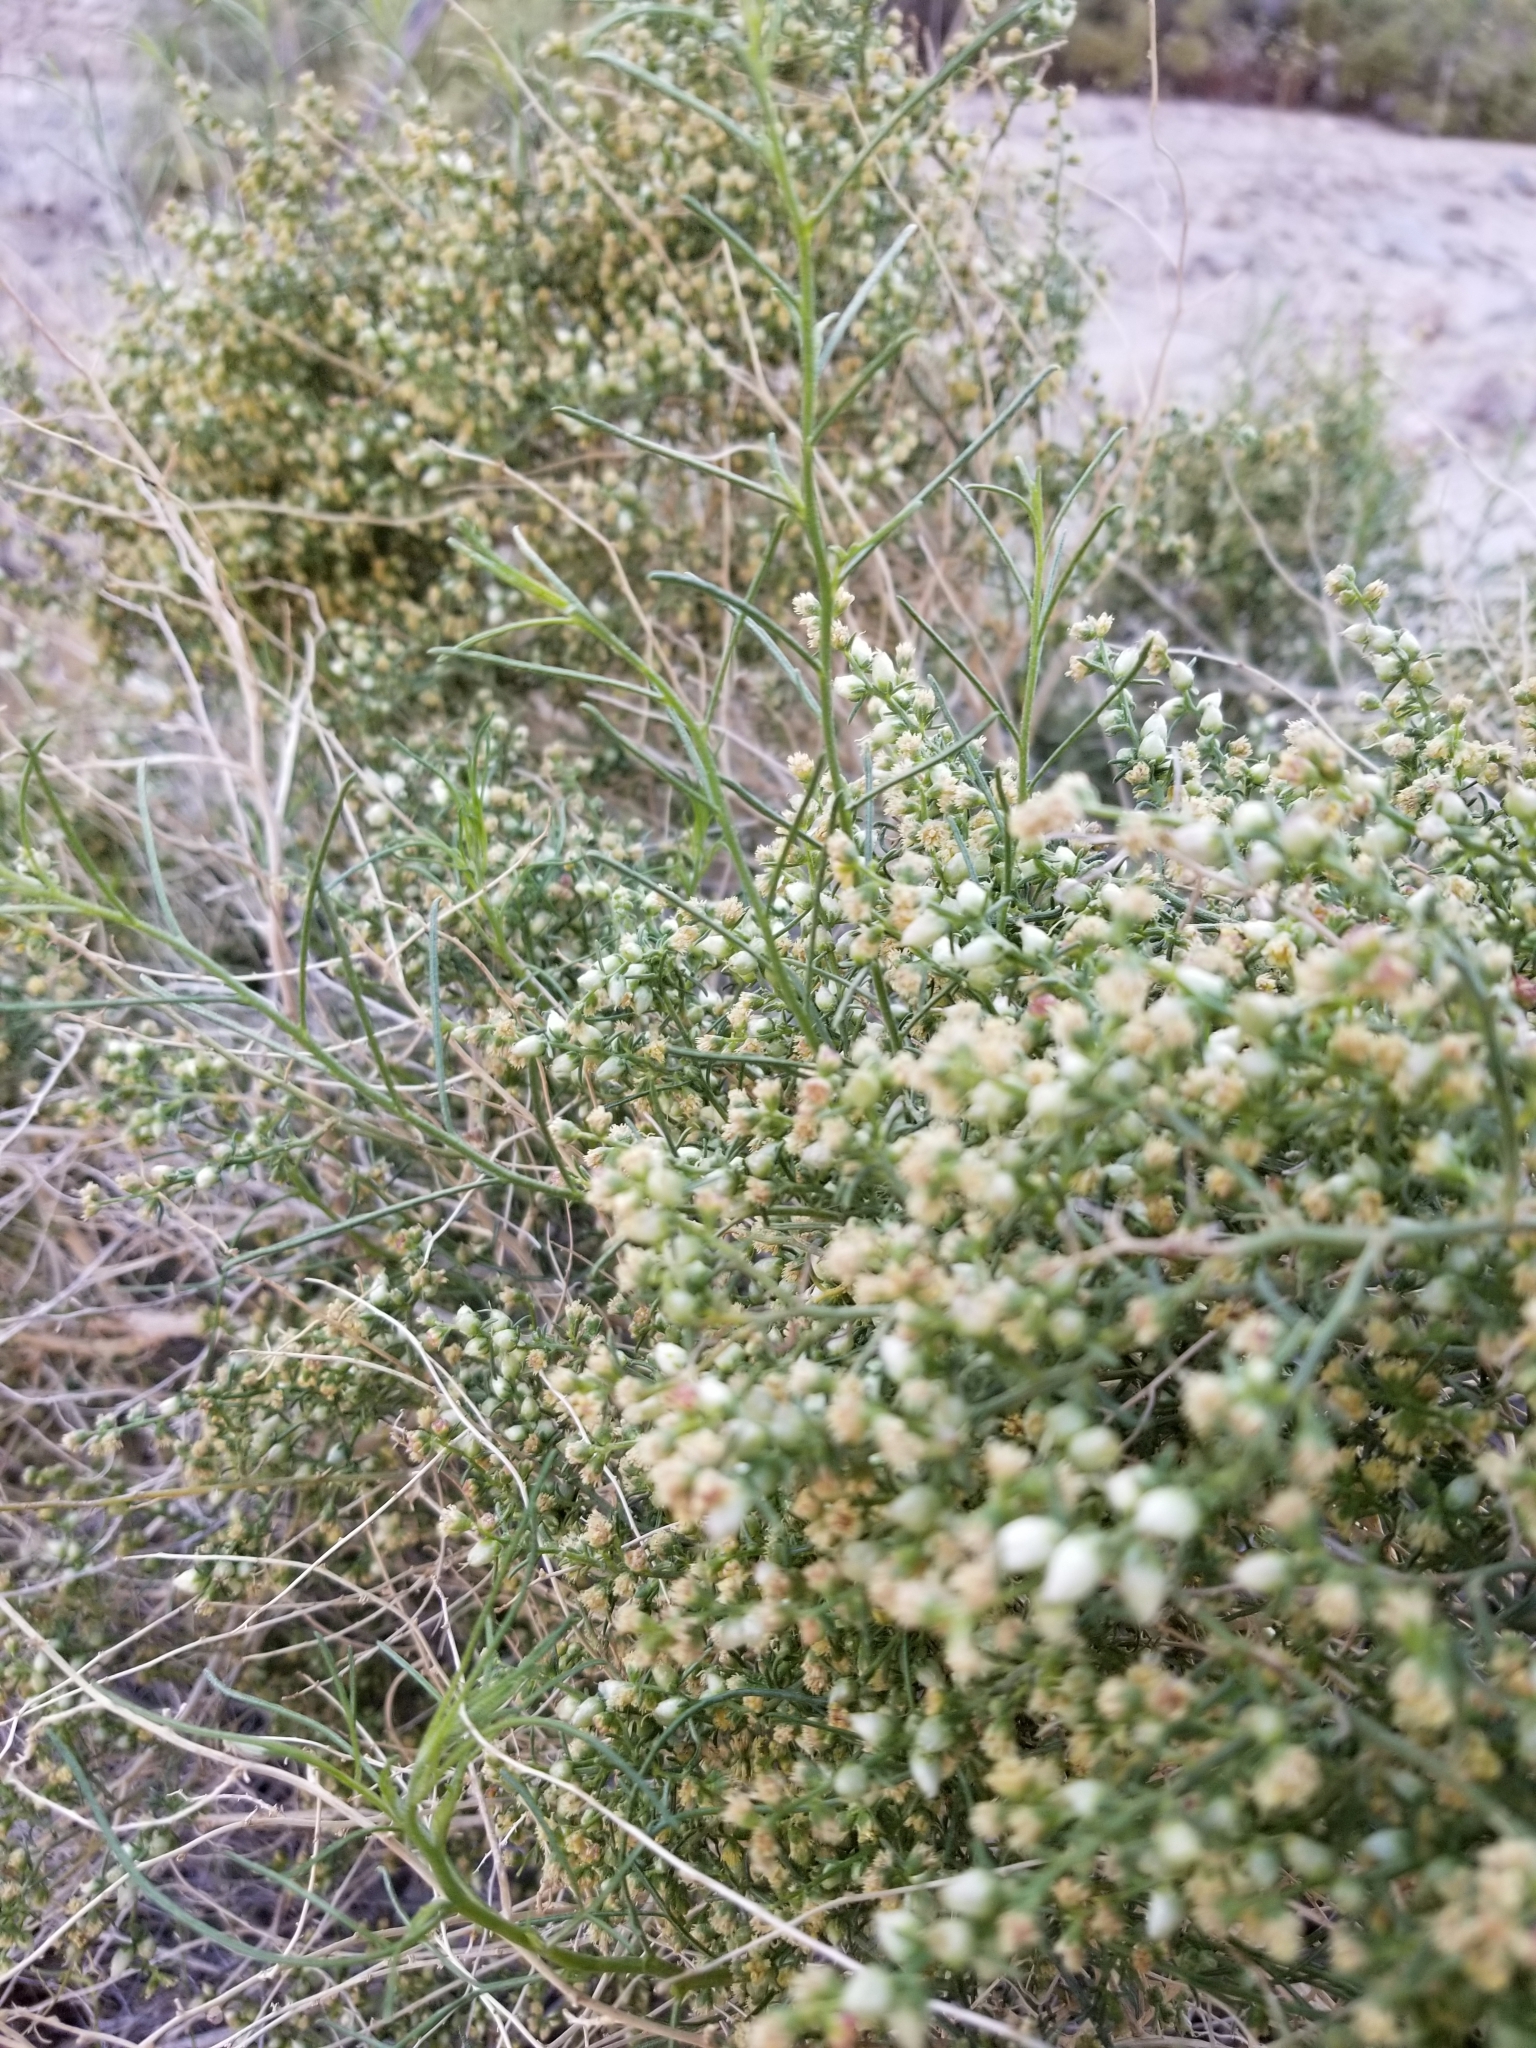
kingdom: Plantae
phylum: Tracheophyta
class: Magnoliopsida
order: Asterales
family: Asteraceae
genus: Ambrosia
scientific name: Ambrosia salsola
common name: Burrobrush
